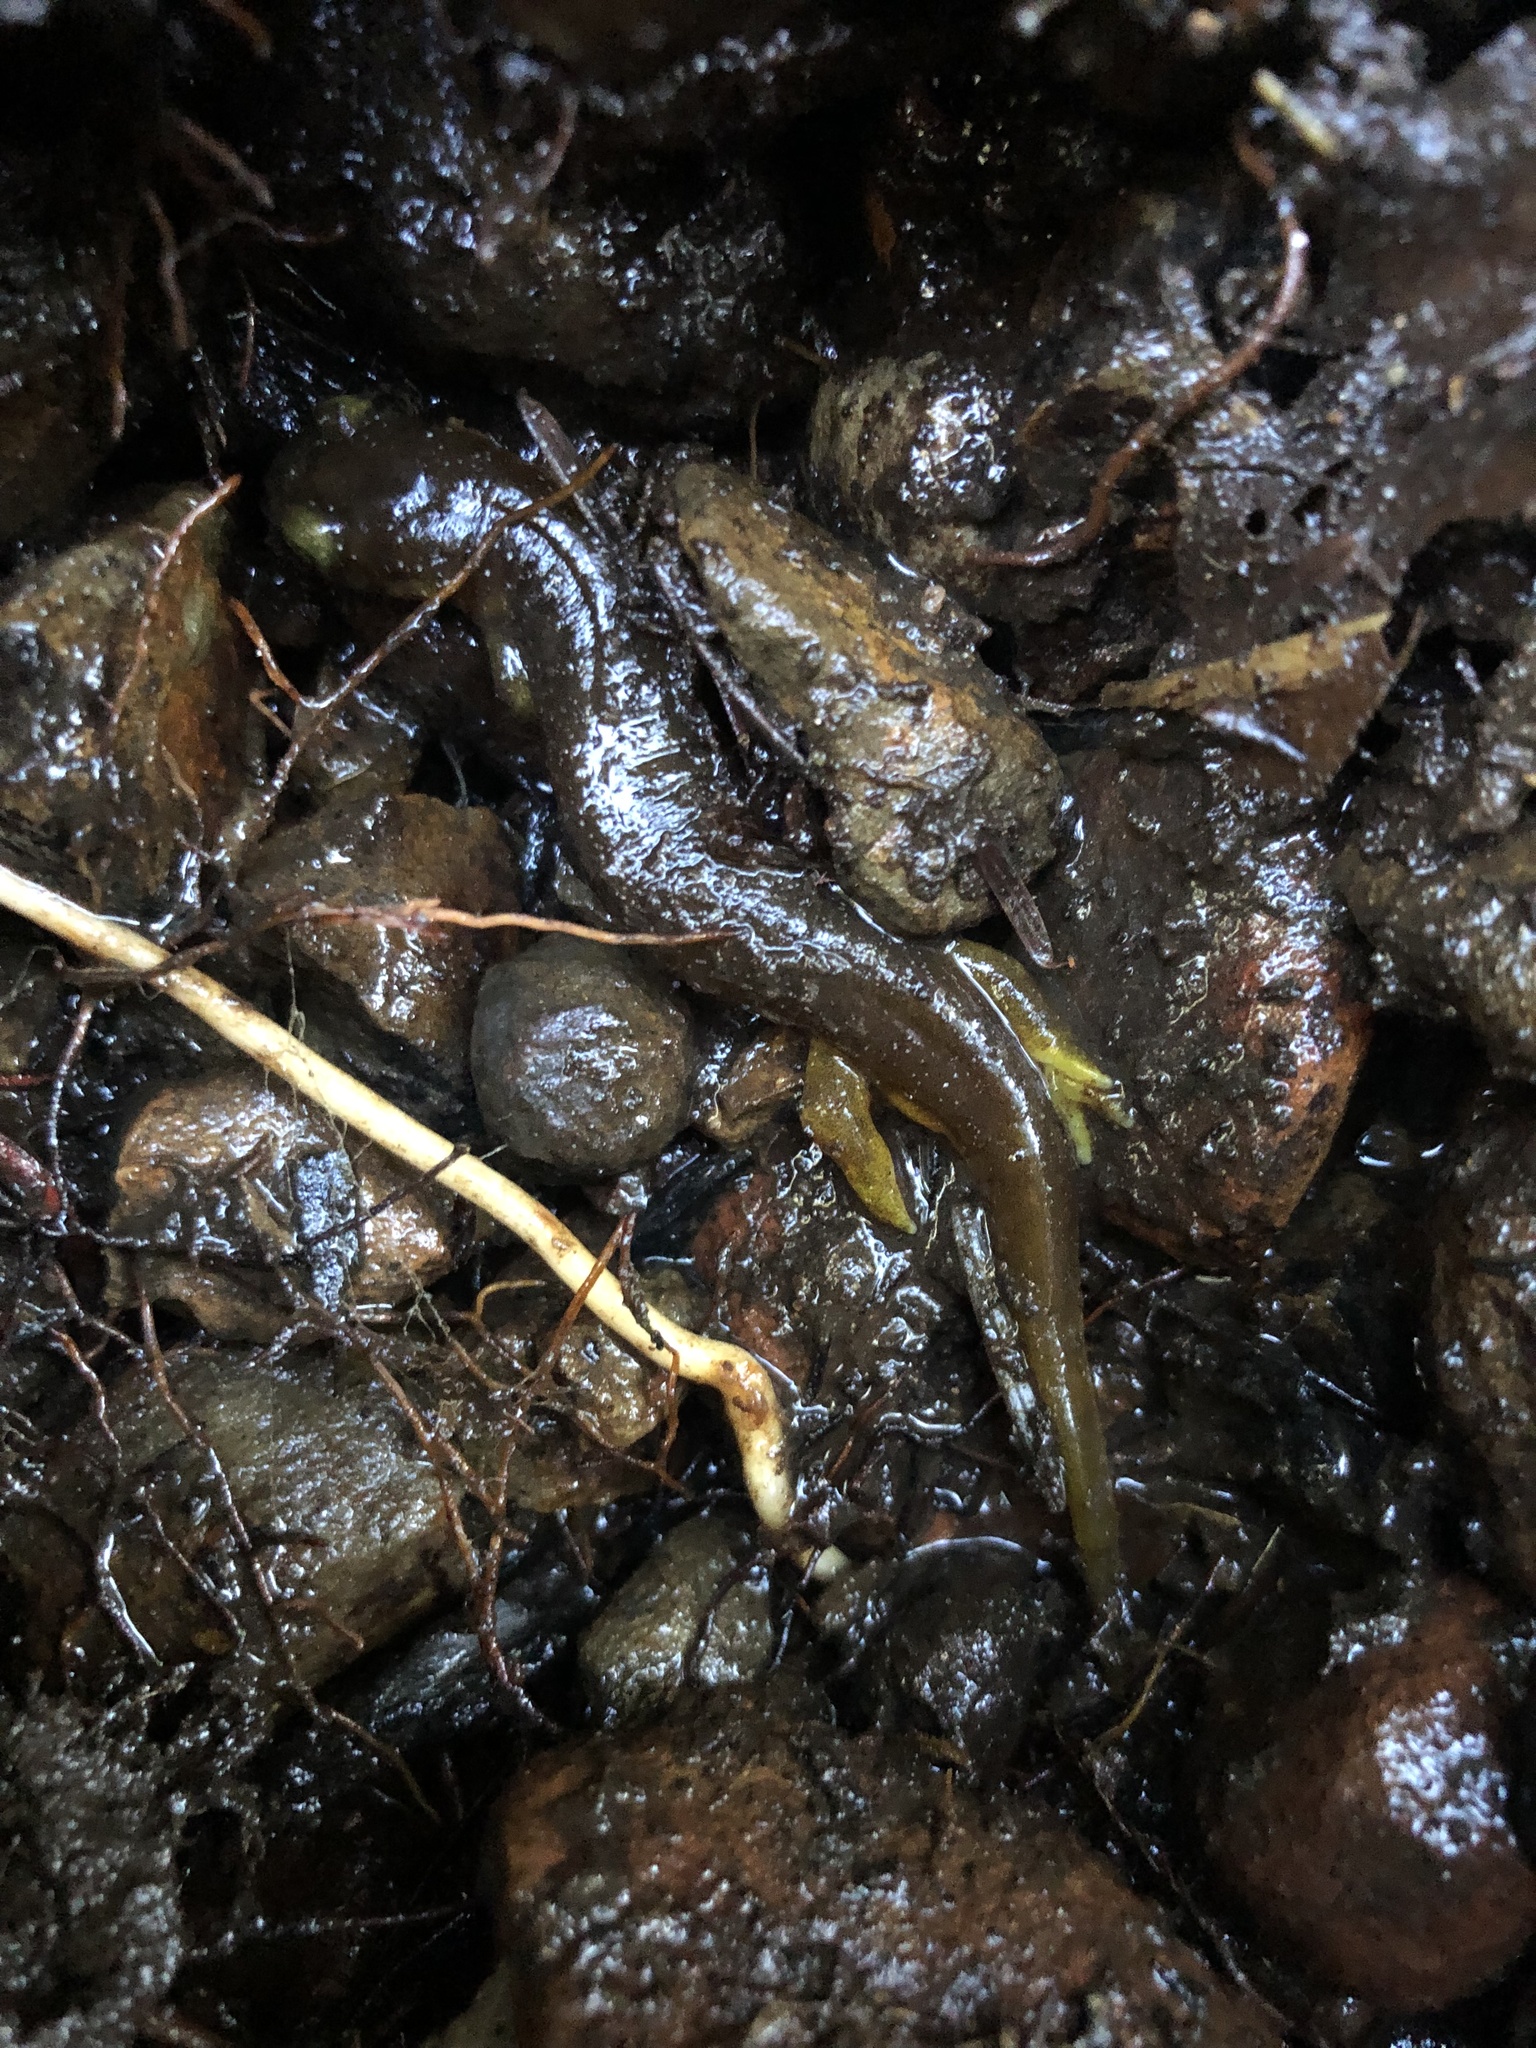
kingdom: Animalia
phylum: Chordata
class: Amphibia
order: Caudata
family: Rhyacotritonidae
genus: Rhyacotriton
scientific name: Rhyacotriton kezeri
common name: Columbia torrent salamander
